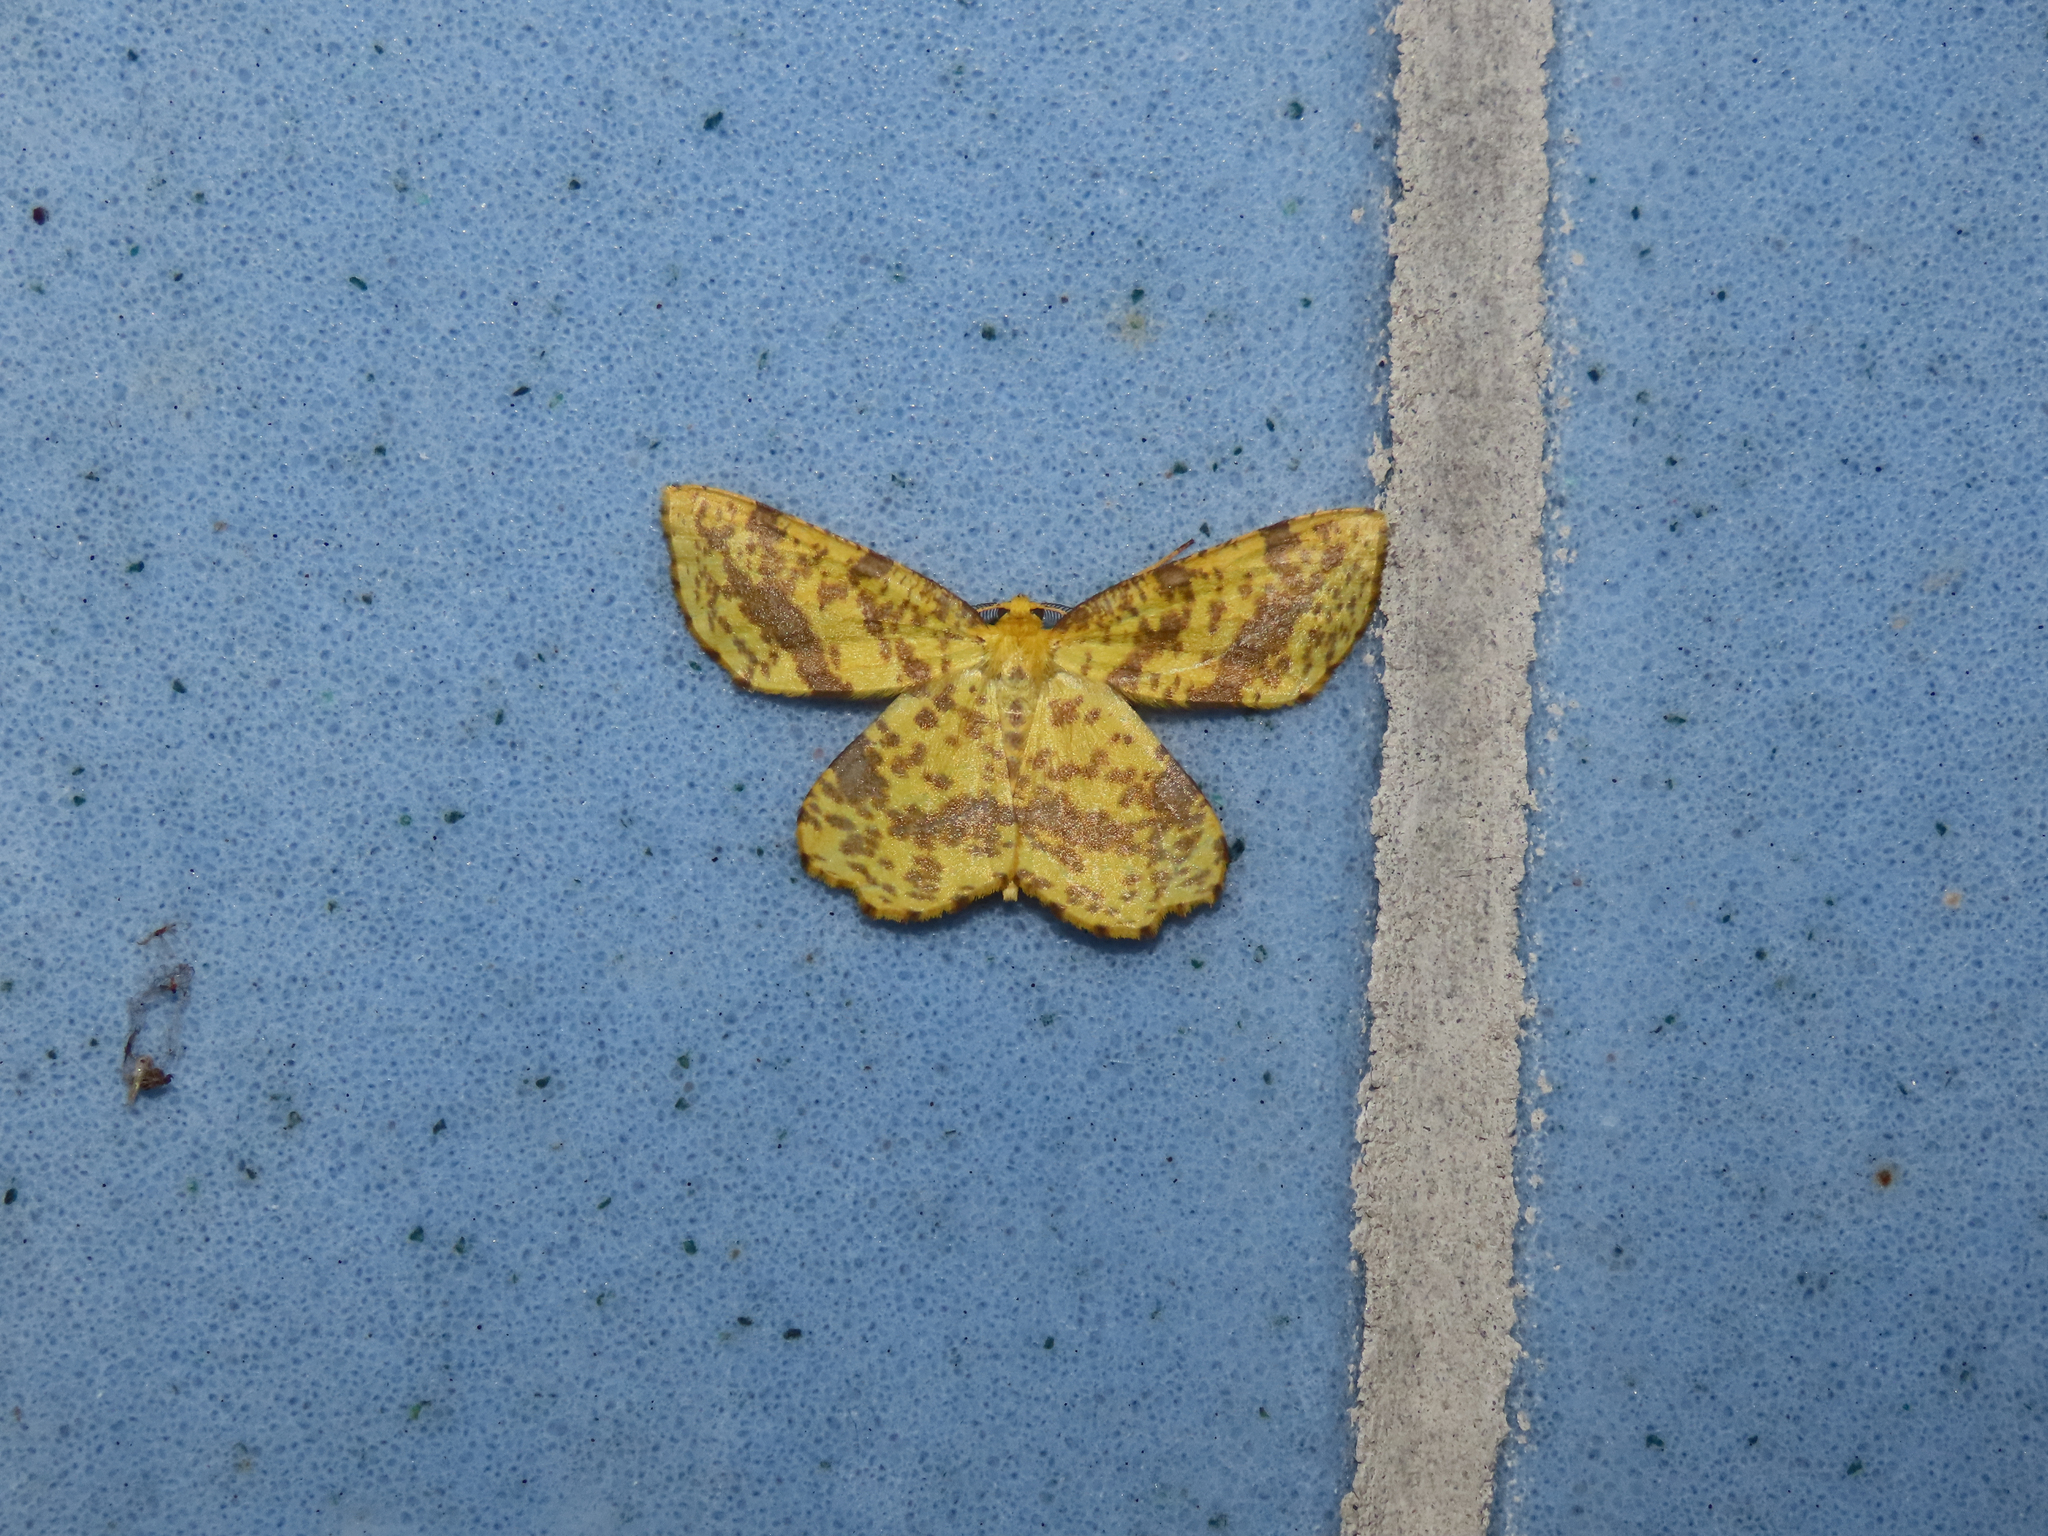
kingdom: Animalia
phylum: Arthropoda
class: Insecta
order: Lepidoptera
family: Geometridae
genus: Xanthotype
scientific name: Xanthotype
